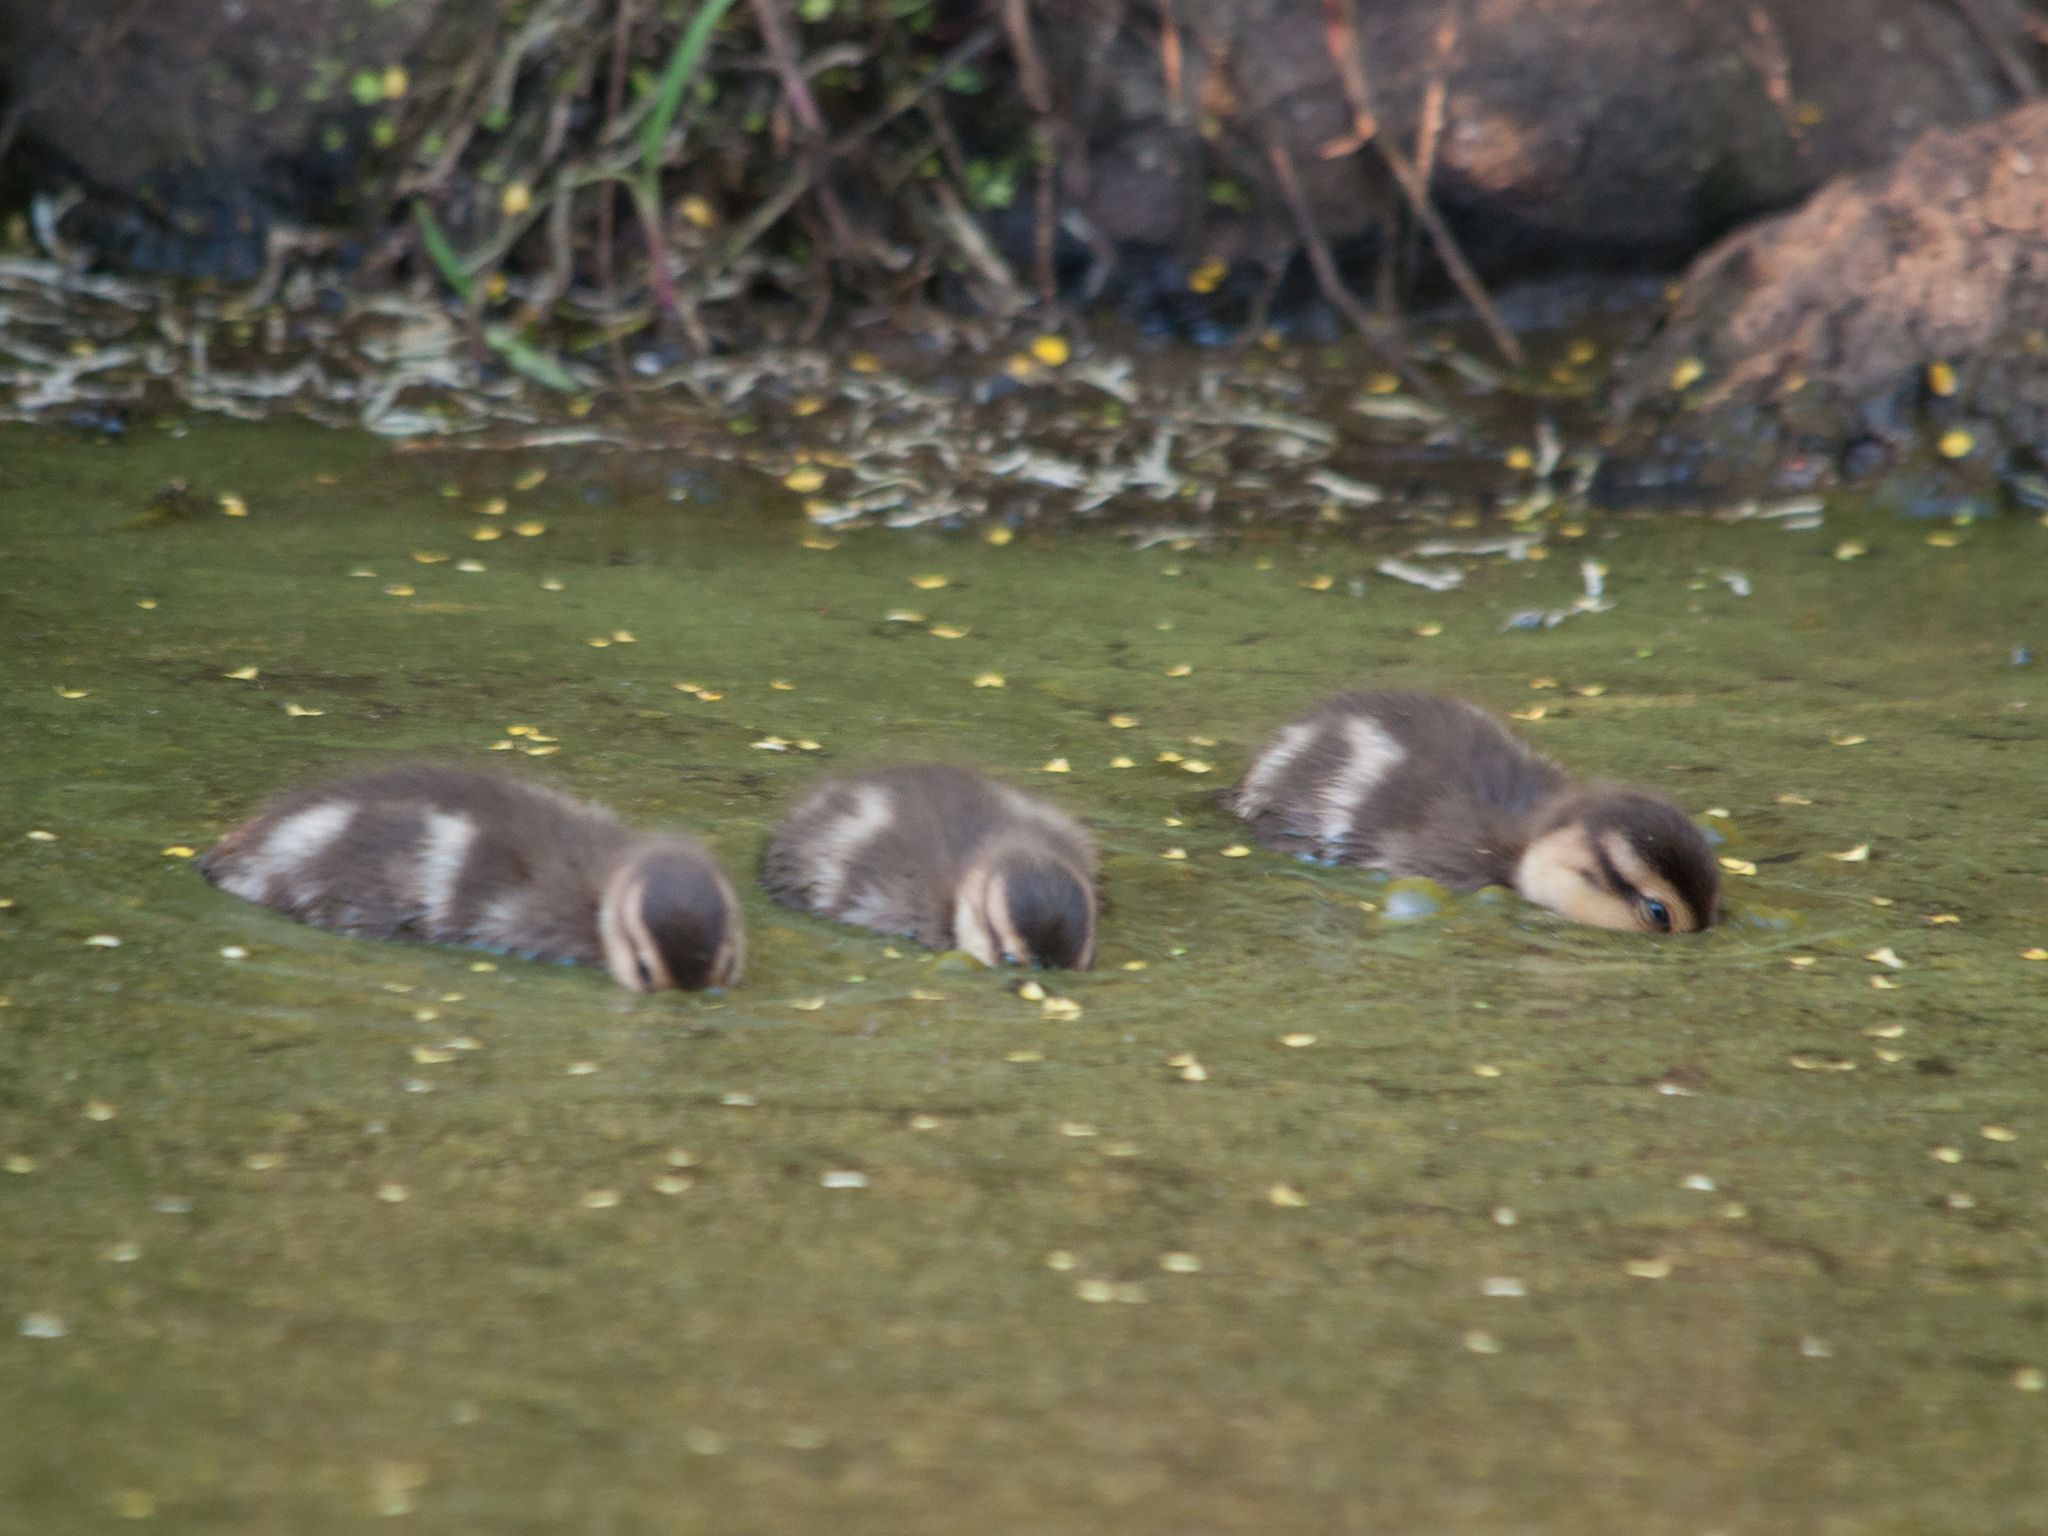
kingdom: Animalia
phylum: Chordata
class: Aves
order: Anseriformes
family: Anatidae
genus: Anas
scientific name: Anas bahamensis
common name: White-cheeked pintail
